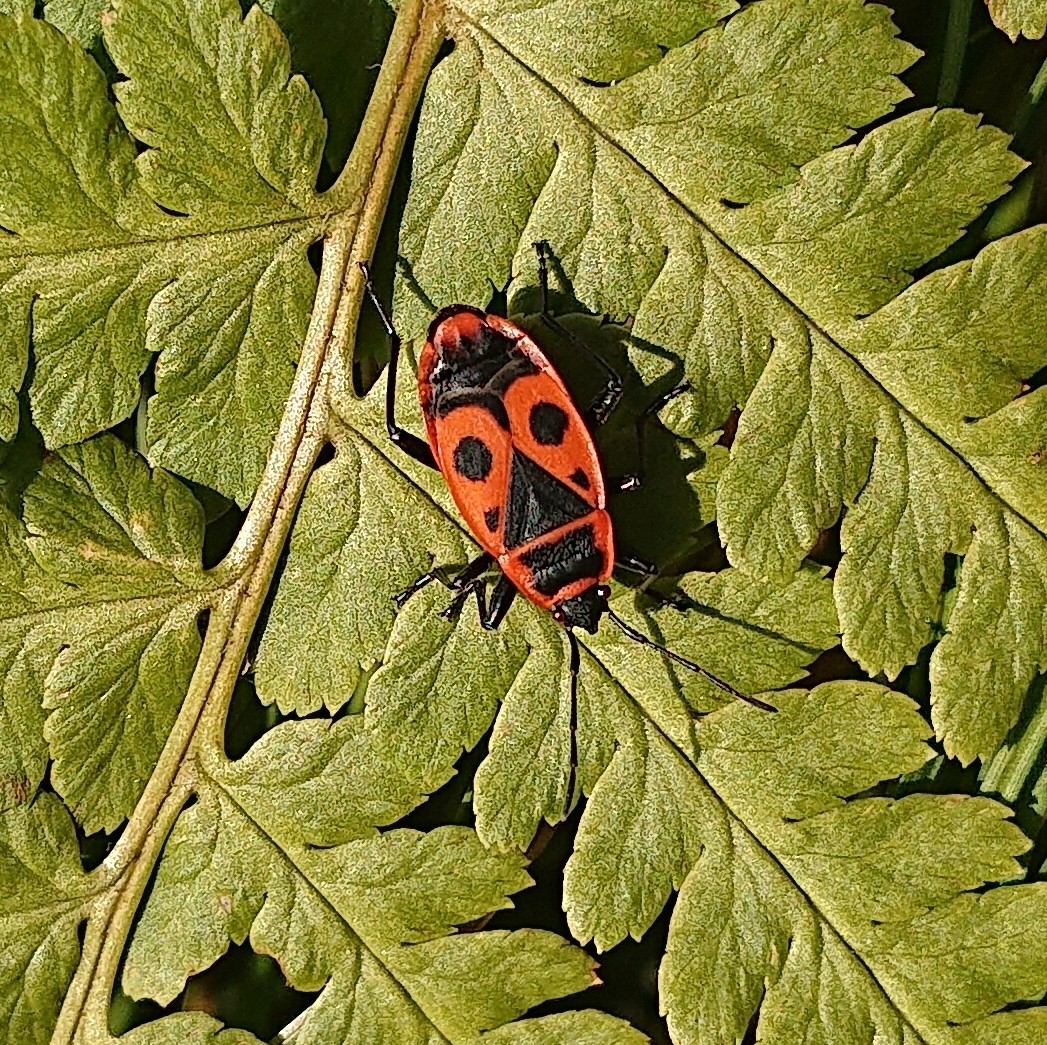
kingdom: Animalia
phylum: Arthropoda
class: Insecta
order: Hemiptera
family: Pyrrhocoridae
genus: Pyrrhocoris
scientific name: Pyrrhocoris apterus
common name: Firebug
